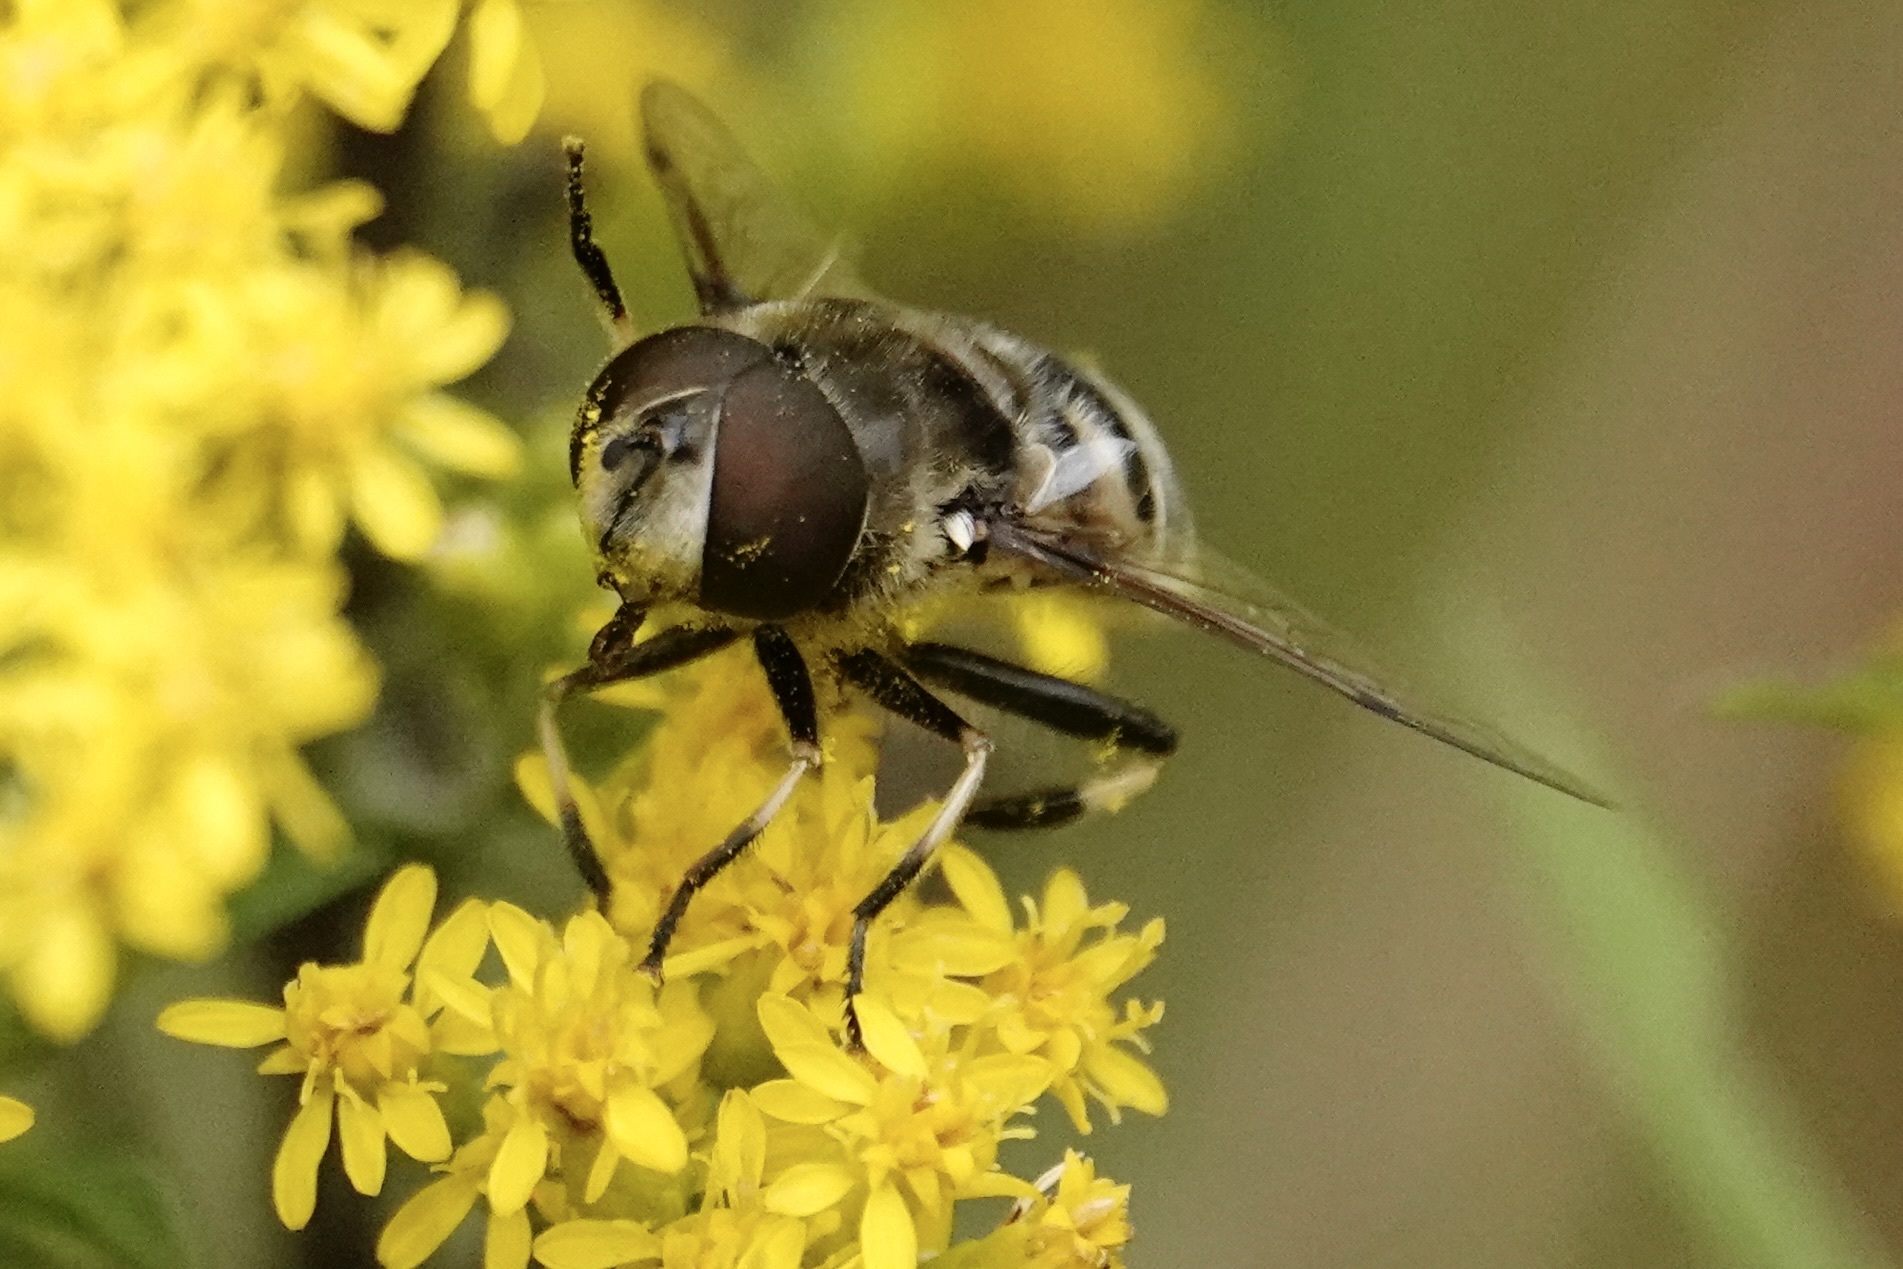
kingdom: Animalia
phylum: Arthropoda
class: Insecta
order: Diptera
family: Syrphidae
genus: Eristalis
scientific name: Eristalis dimidiata
